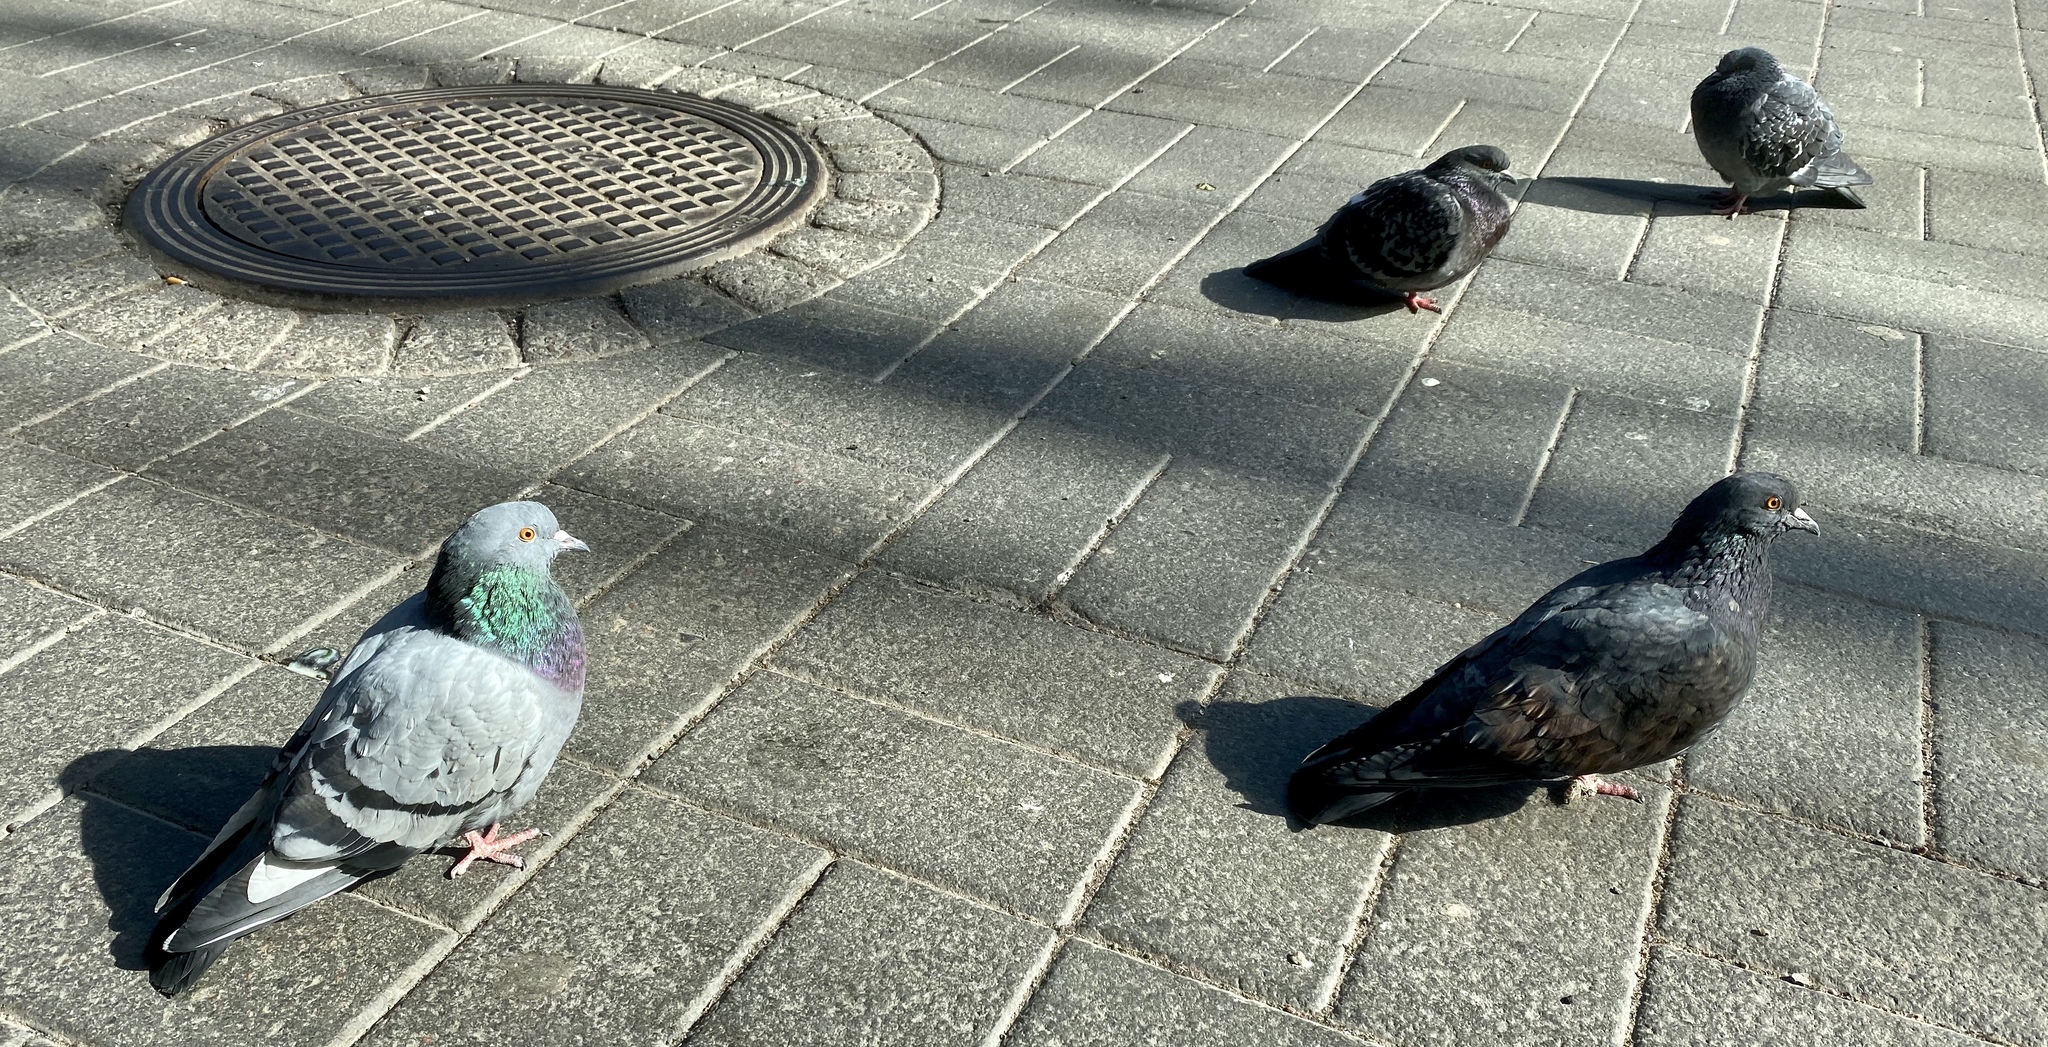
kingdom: Animalia
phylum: Chordata
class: Aves
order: Columbiformes
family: Columbidae
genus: Columba
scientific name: Columba livia
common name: Rock pigeon
